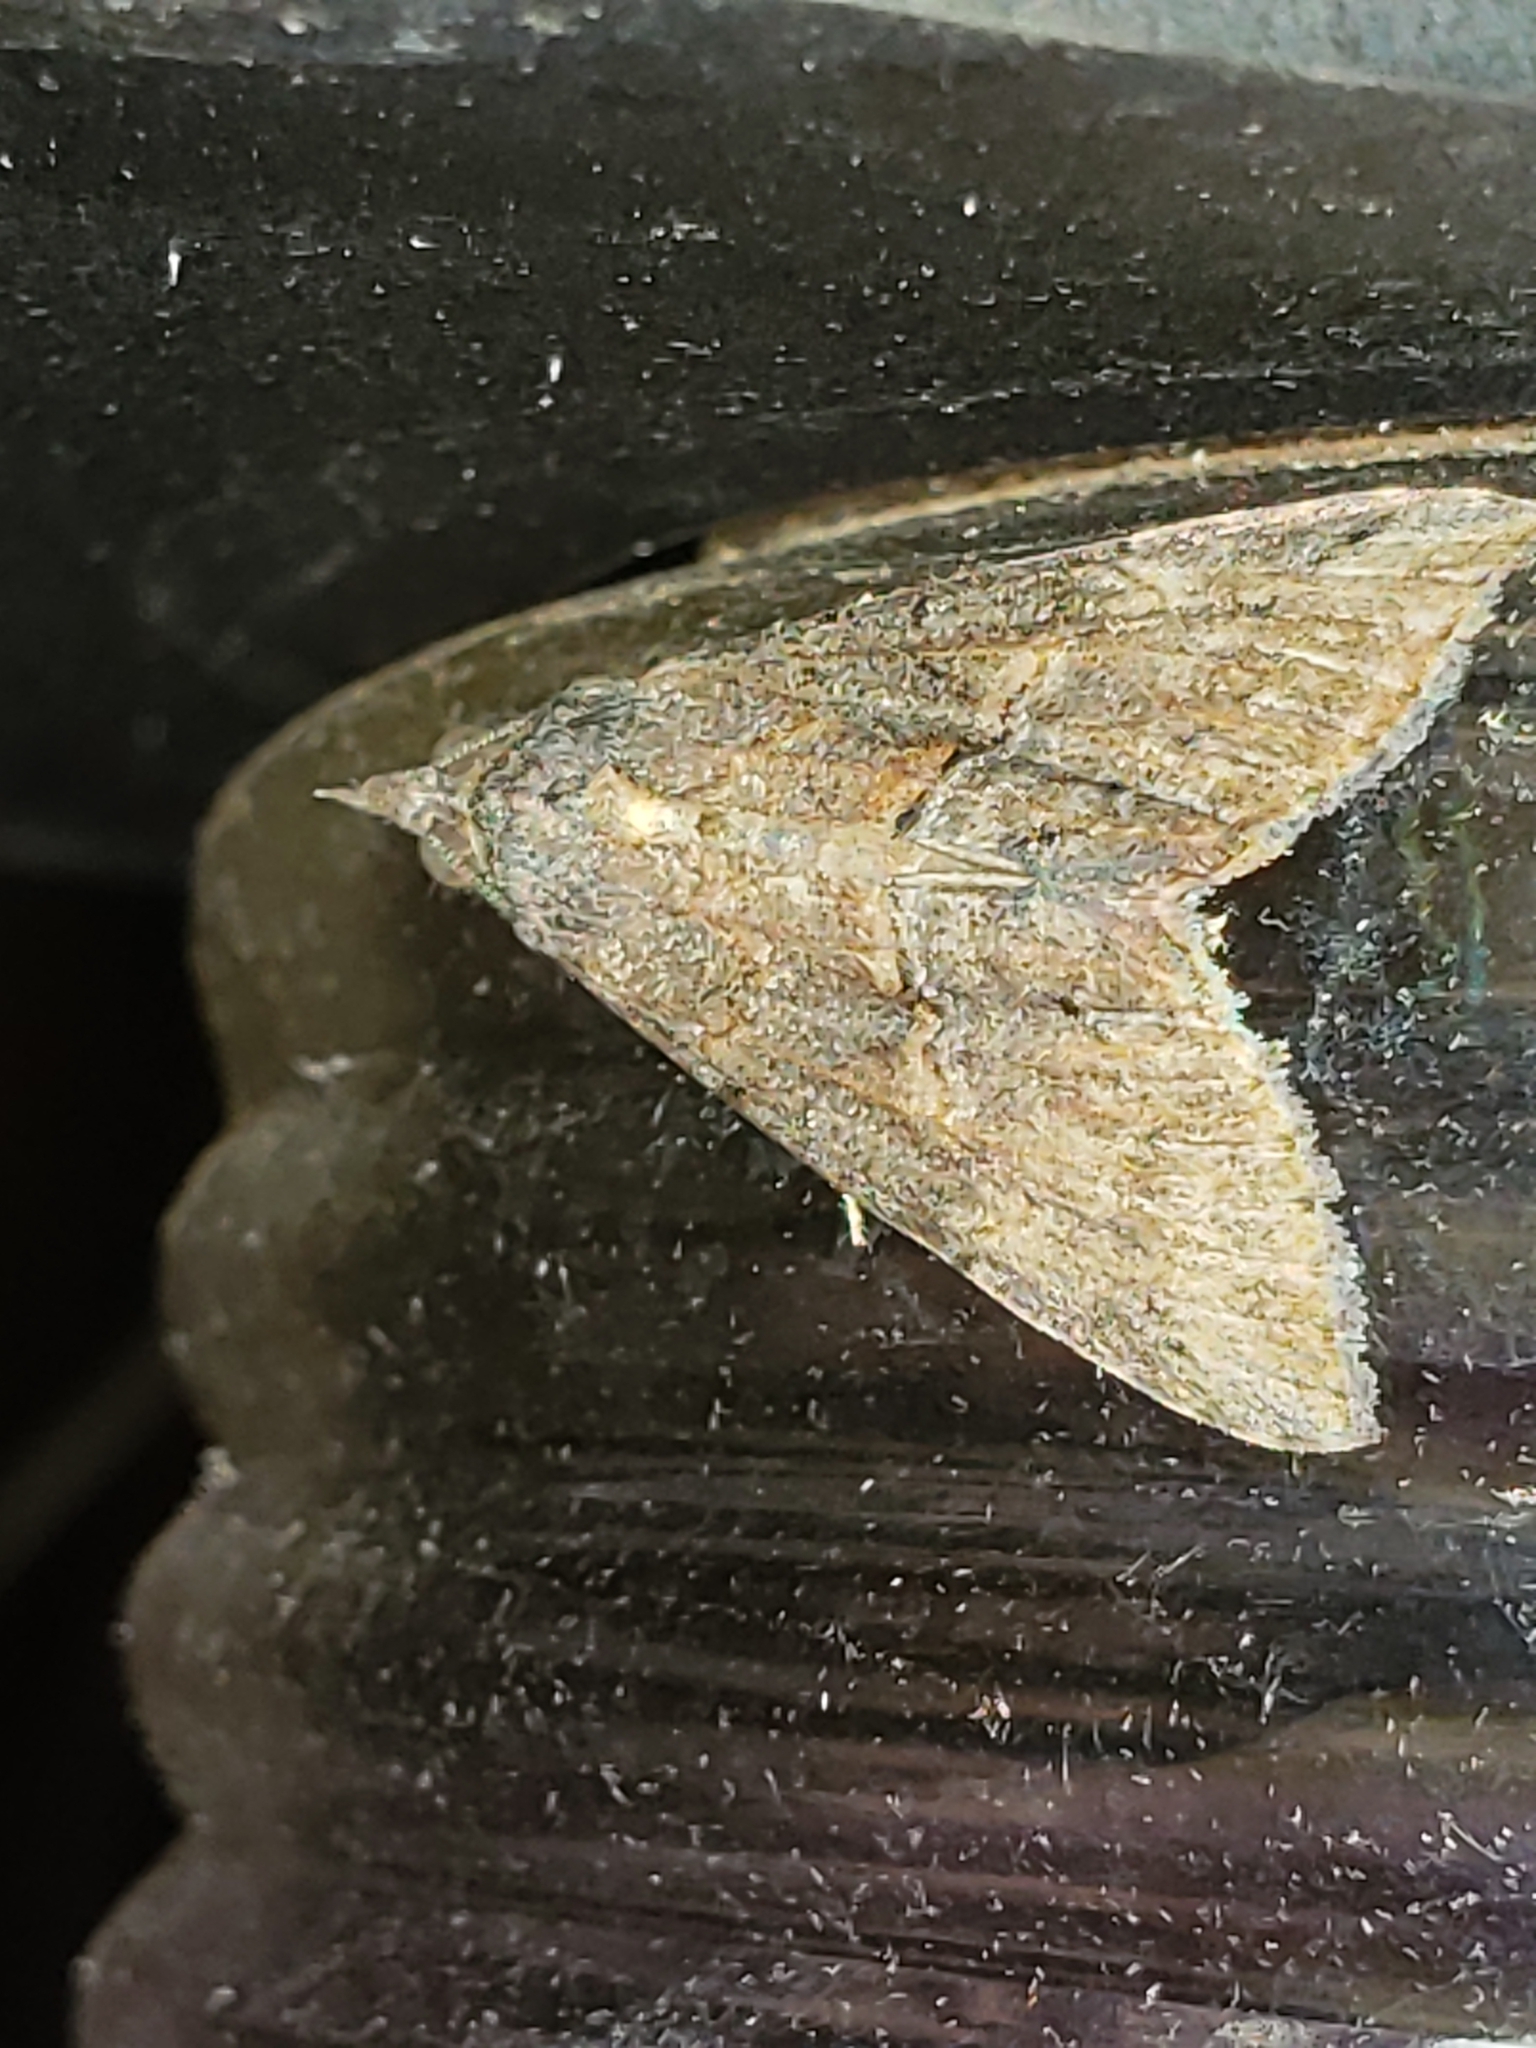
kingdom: Animalia
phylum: Arthropoda
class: Insecta
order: Lepidoptera
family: Erebidae
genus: Hypena
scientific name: Hypena scabra
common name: Green cloverworm
